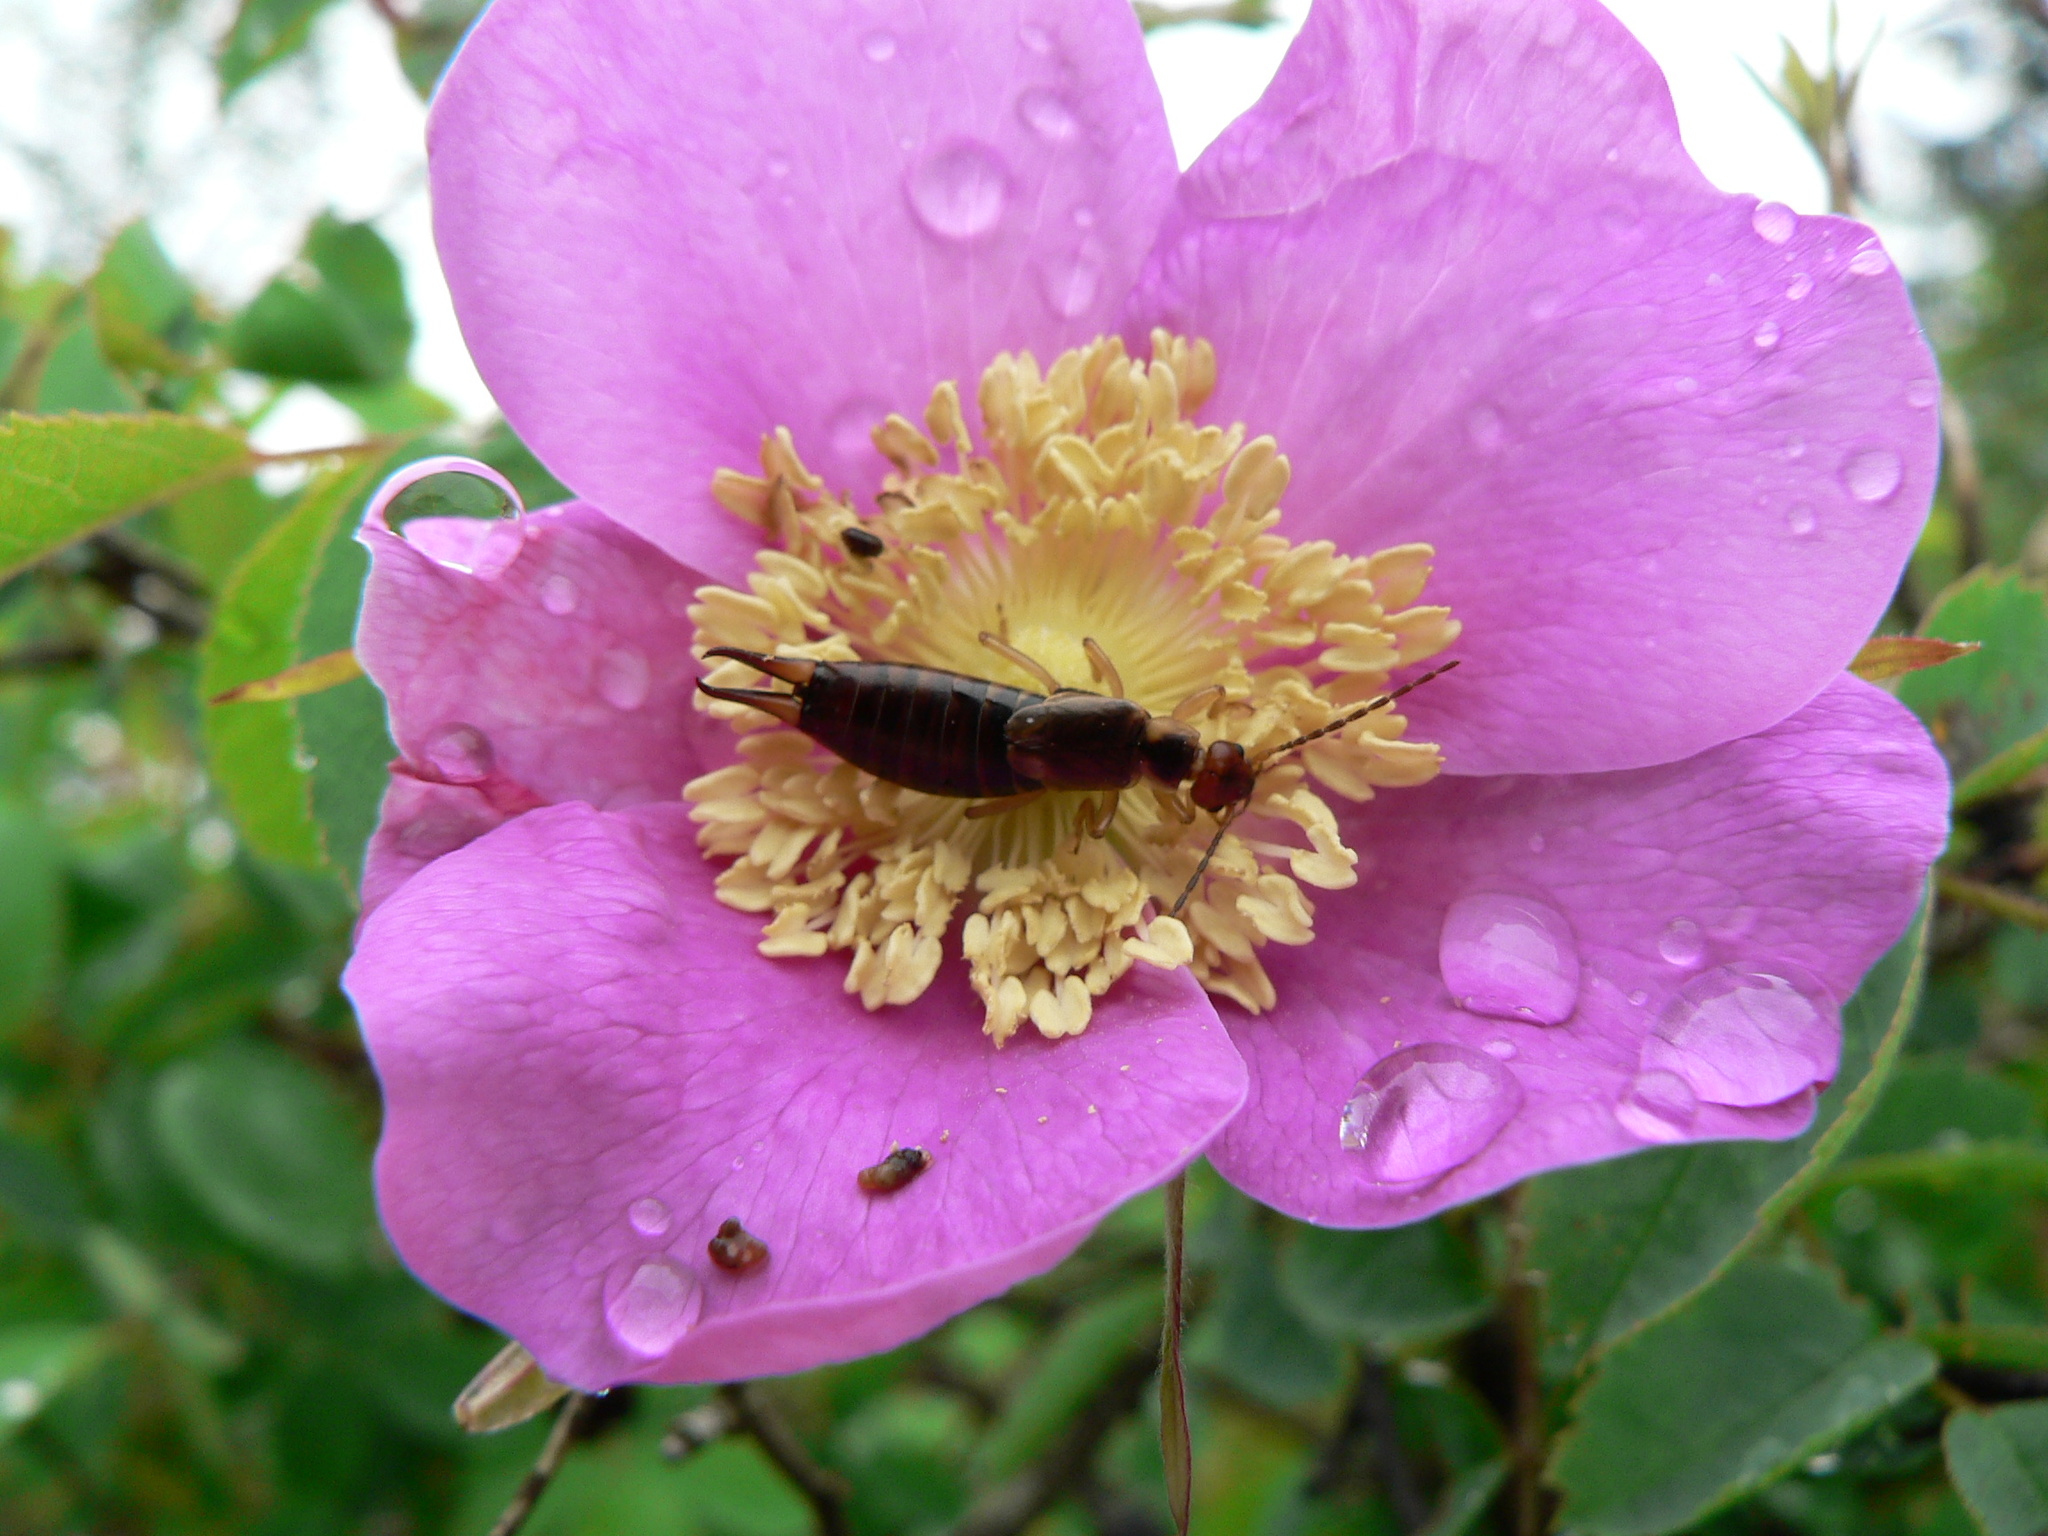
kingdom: Animalia
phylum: Arthropoda
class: Insecta
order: Dermaptera
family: Forficulidae
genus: Forficula
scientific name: Forficula
